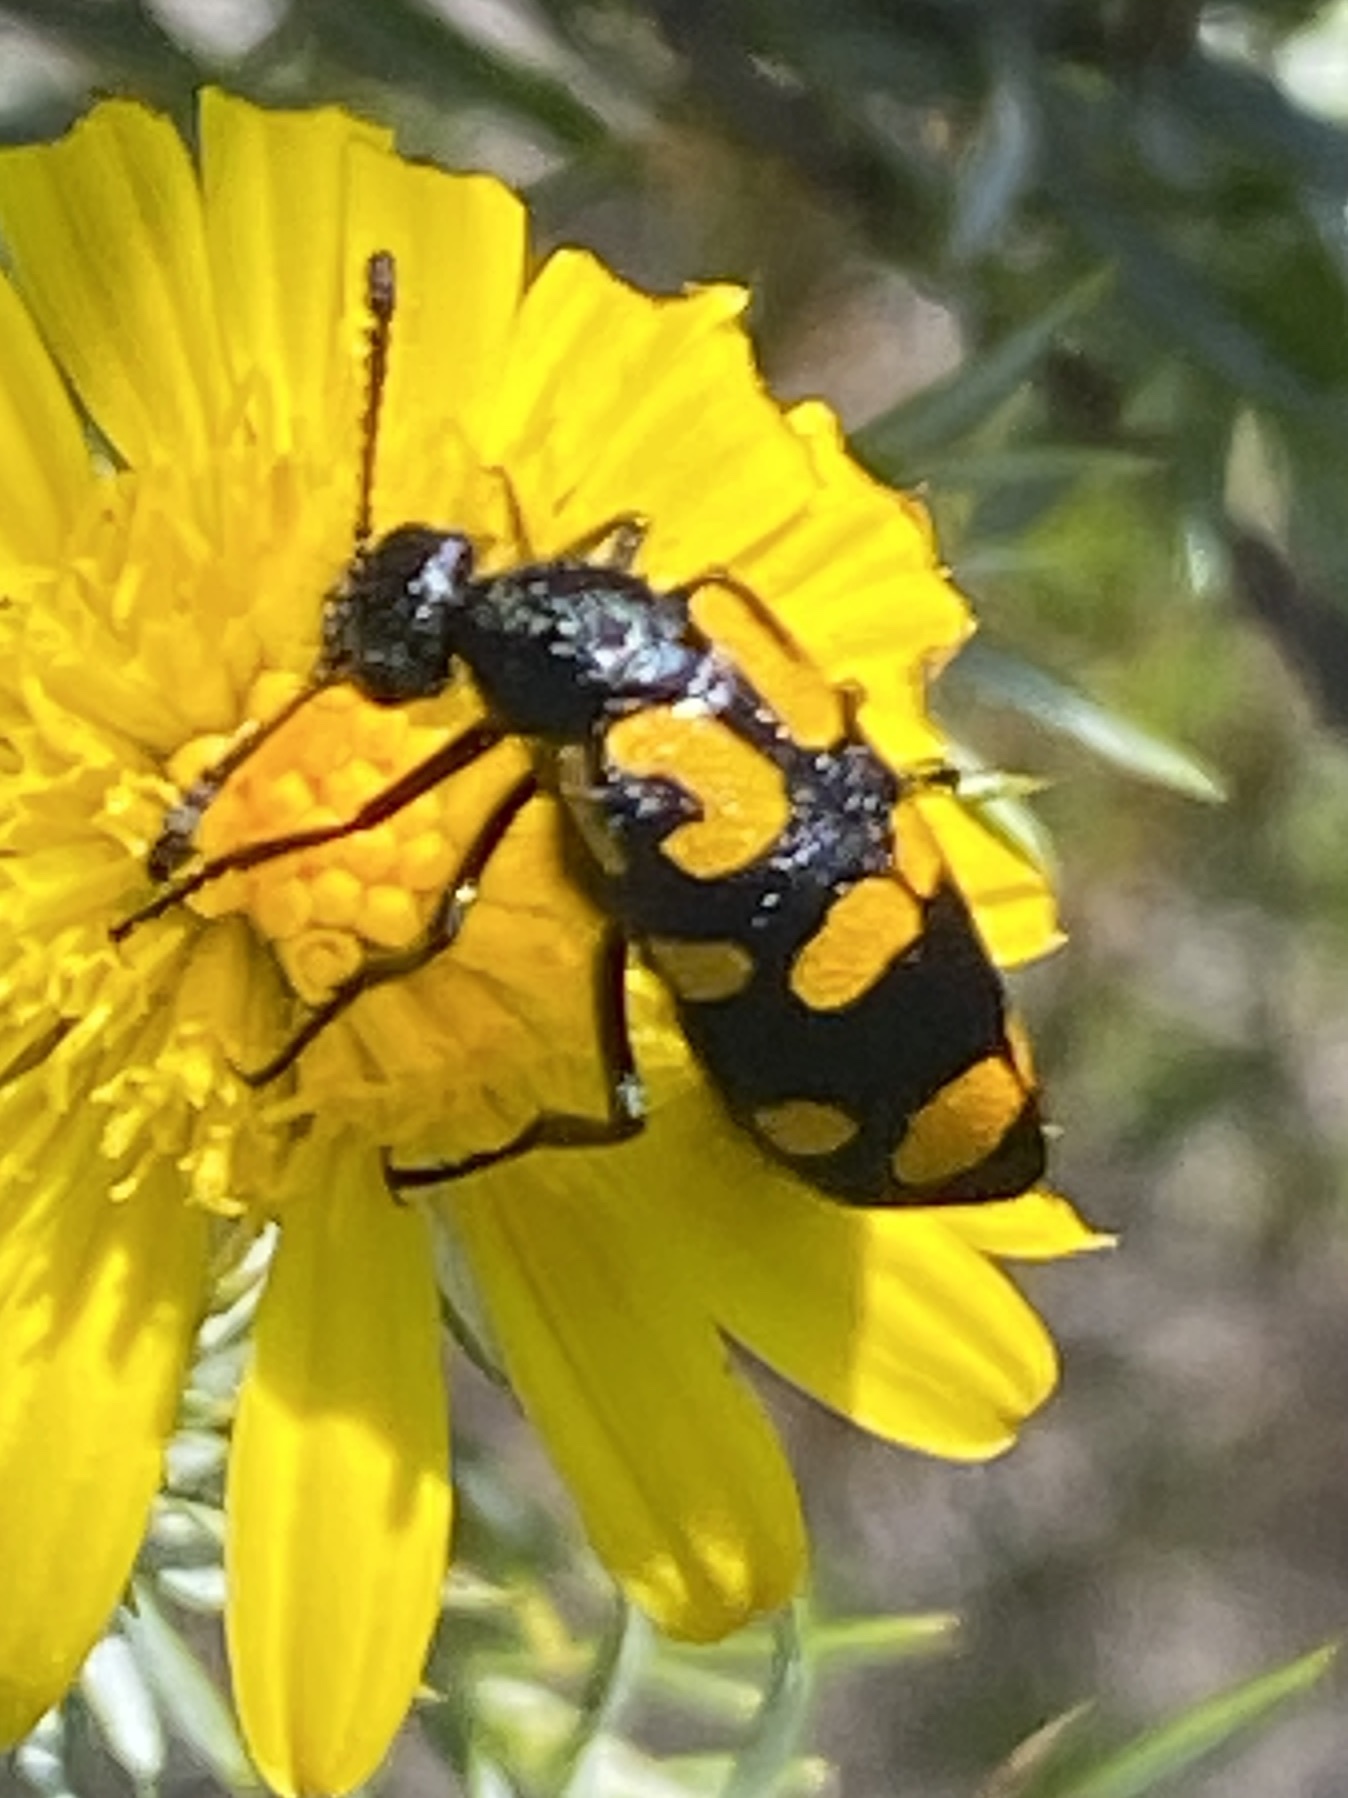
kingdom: Animalia
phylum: Arthropoda
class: Insecta
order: Coleoptera
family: Meloidae
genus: Ceroctis
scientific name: Ceroctis capensis
